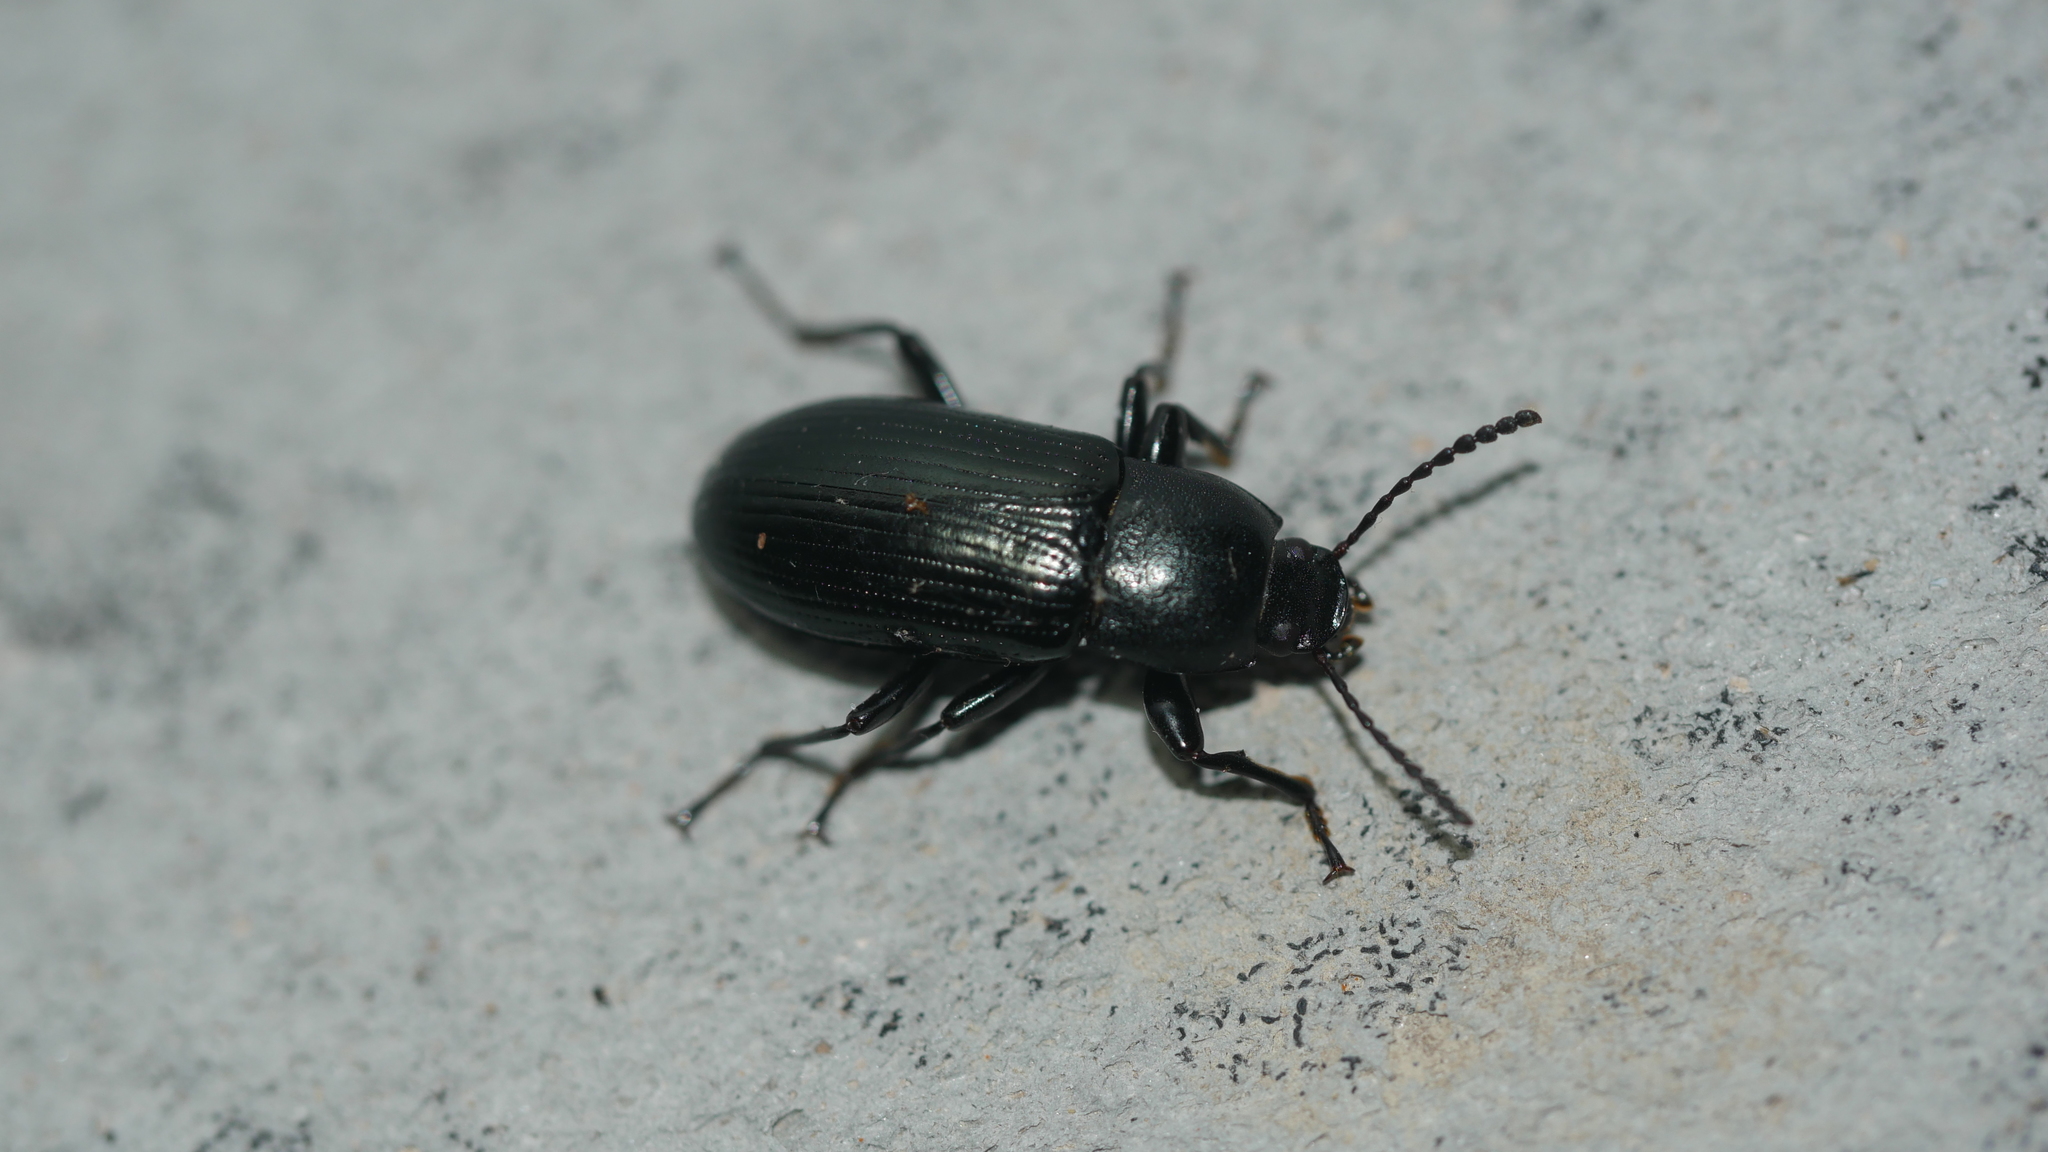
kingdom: Animalia
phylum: Arthropoda
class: Insecta
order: Coleoptera
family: Tenebrionidae
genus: Centronopus
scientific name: Centronopus calcaratus
